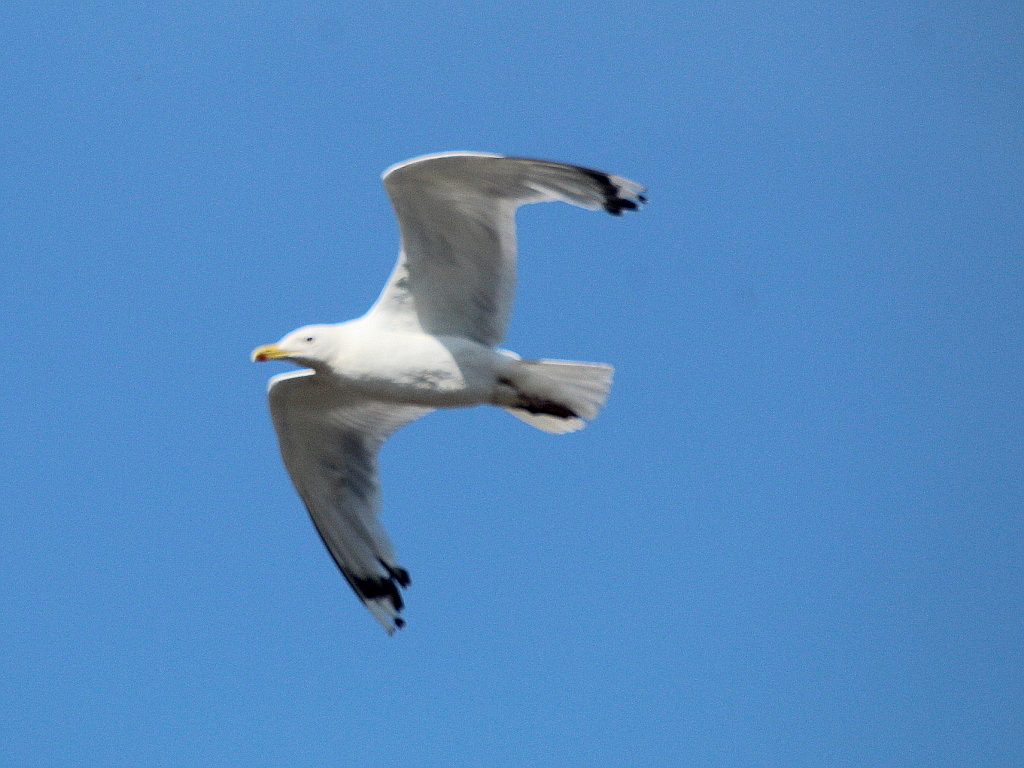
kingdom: Animalia
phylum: Chordata
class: Aves
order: Charadriiformes
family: Laridae
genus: Larus
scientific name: Larus cachinnans
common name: Caspian gull
